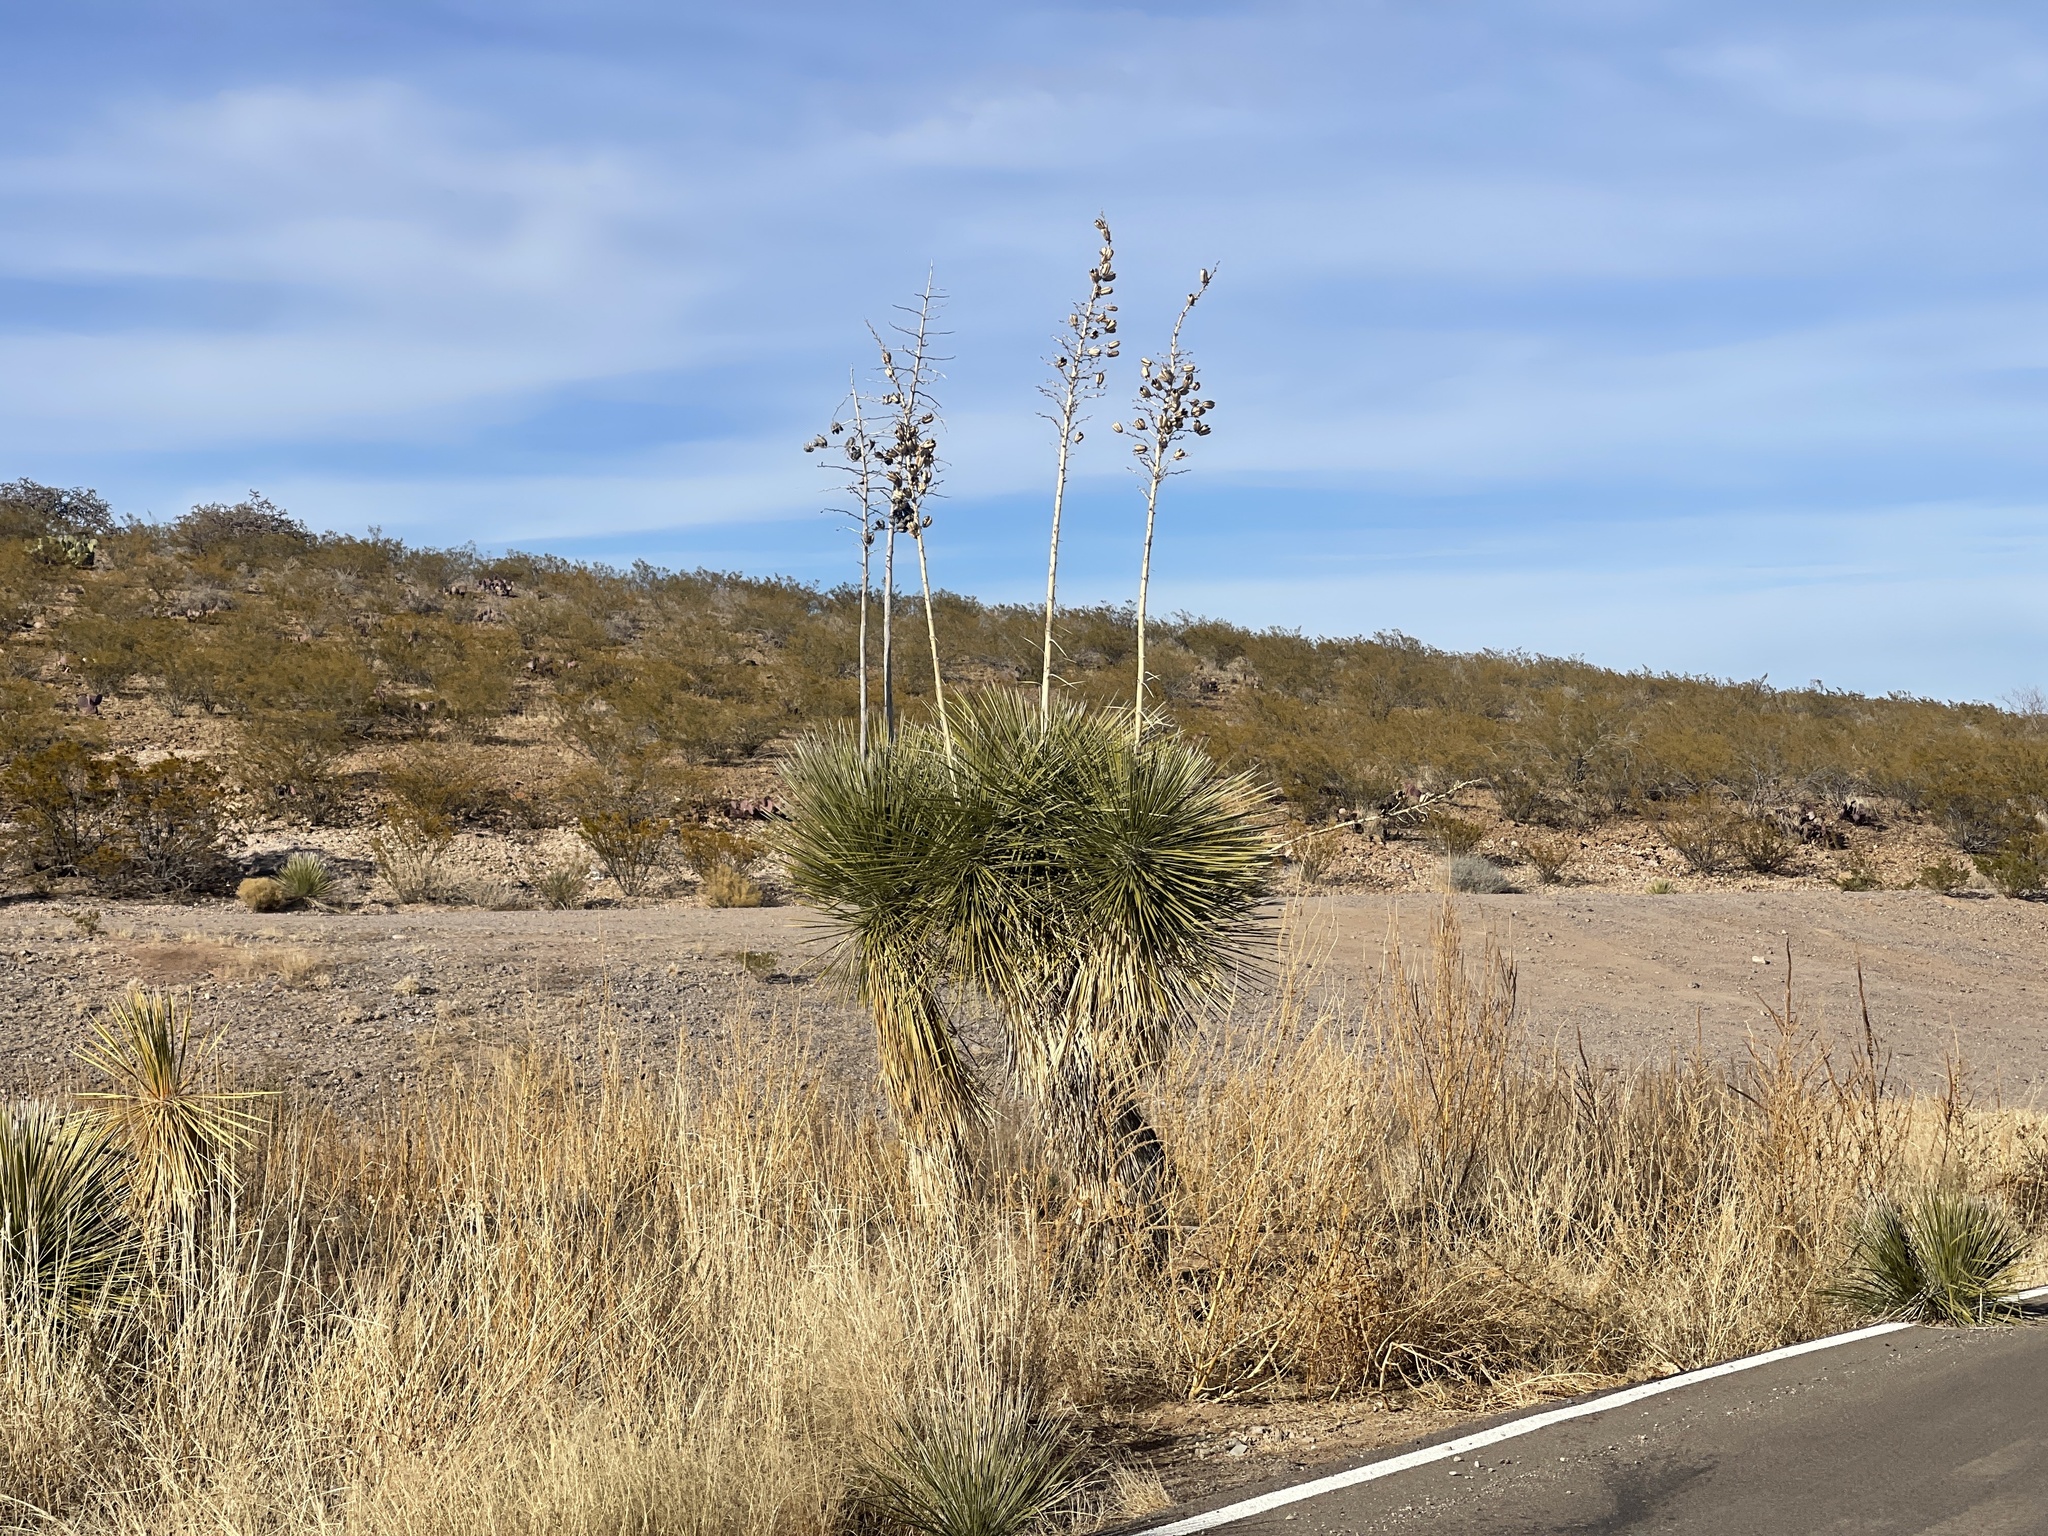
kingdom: Plantae
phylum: Tracheophyta
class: Liliopsida
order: Asparagales
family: Asparagaceae
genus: Yucca
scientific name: Yucca elata
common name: Palmella
